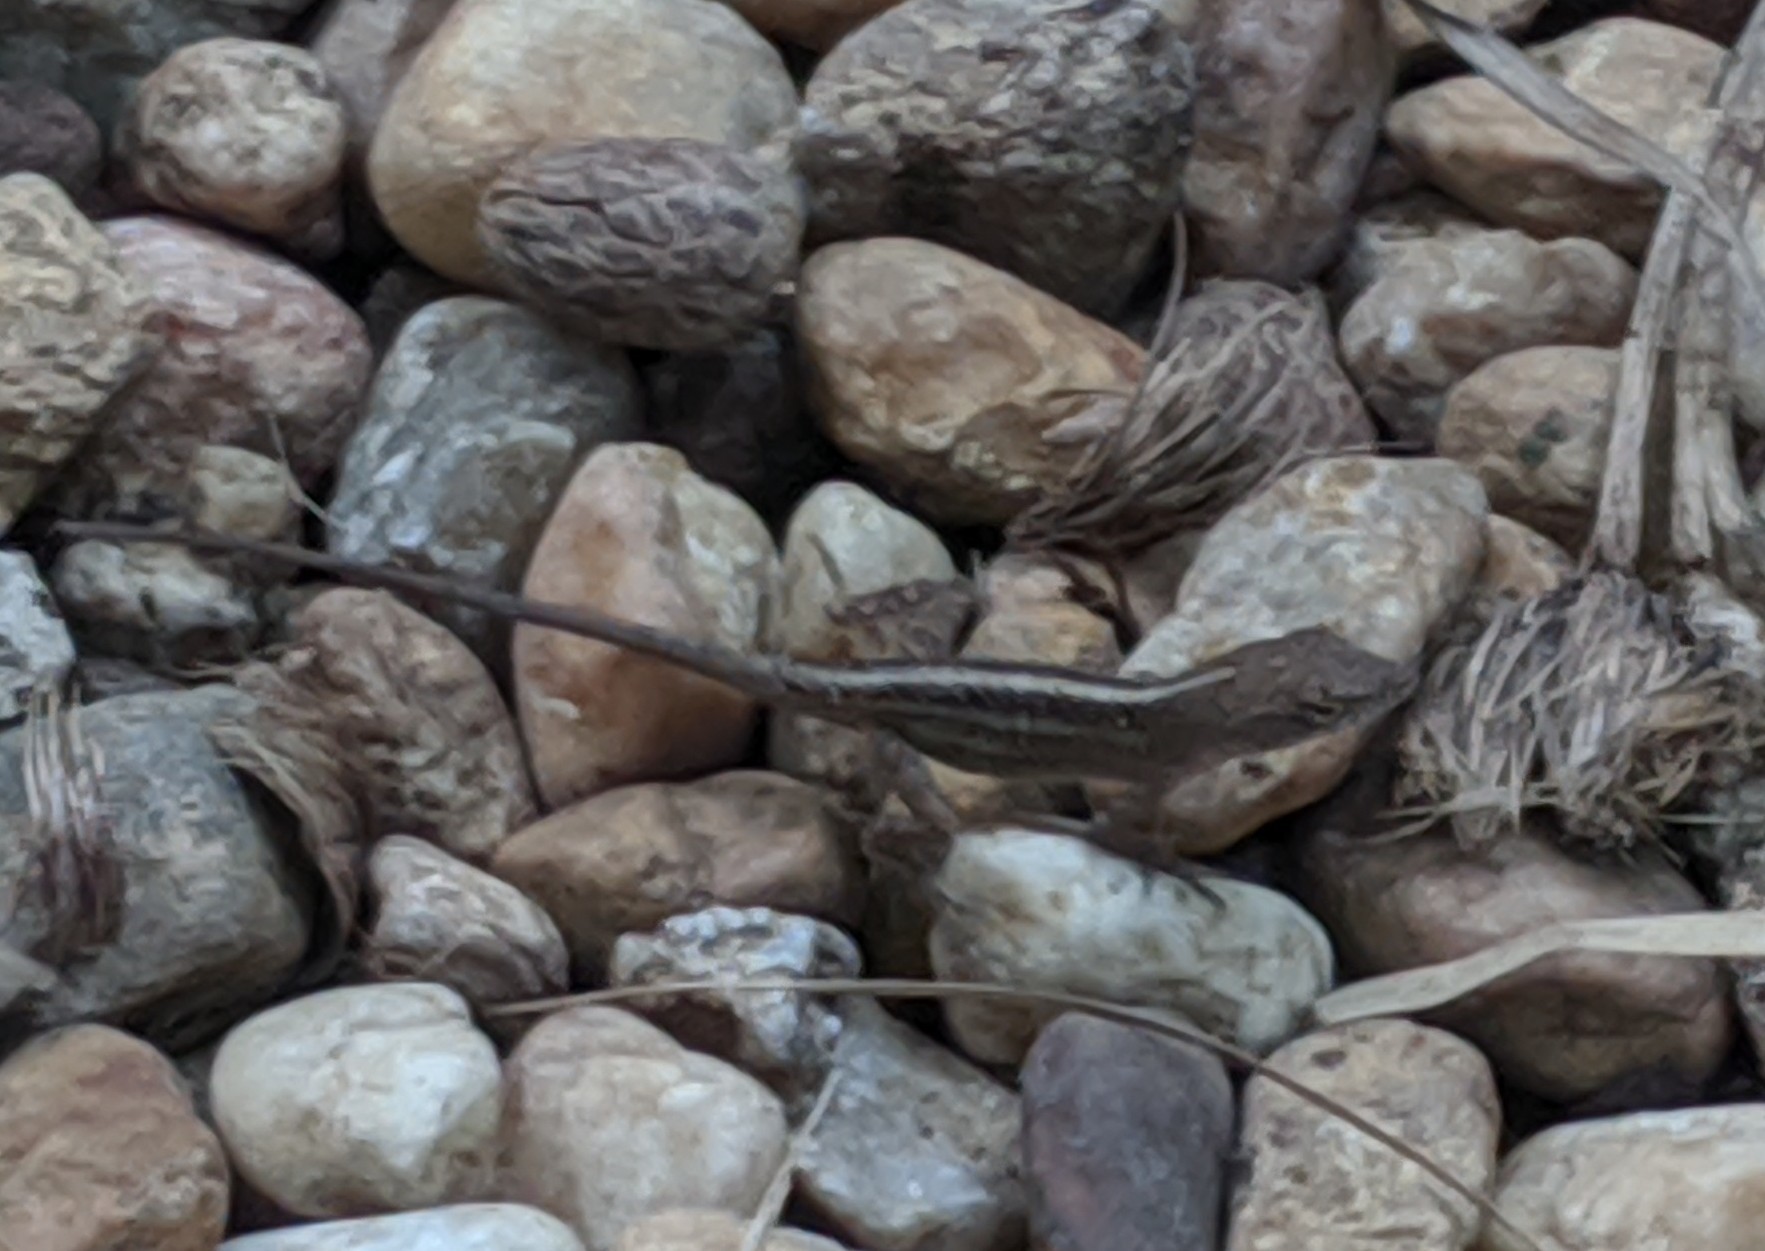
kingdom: Animalia
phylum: Chordata
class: Squamata
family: Dactyloidae
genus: Anolis
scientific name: Anolis sagrei
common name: Brown anole
